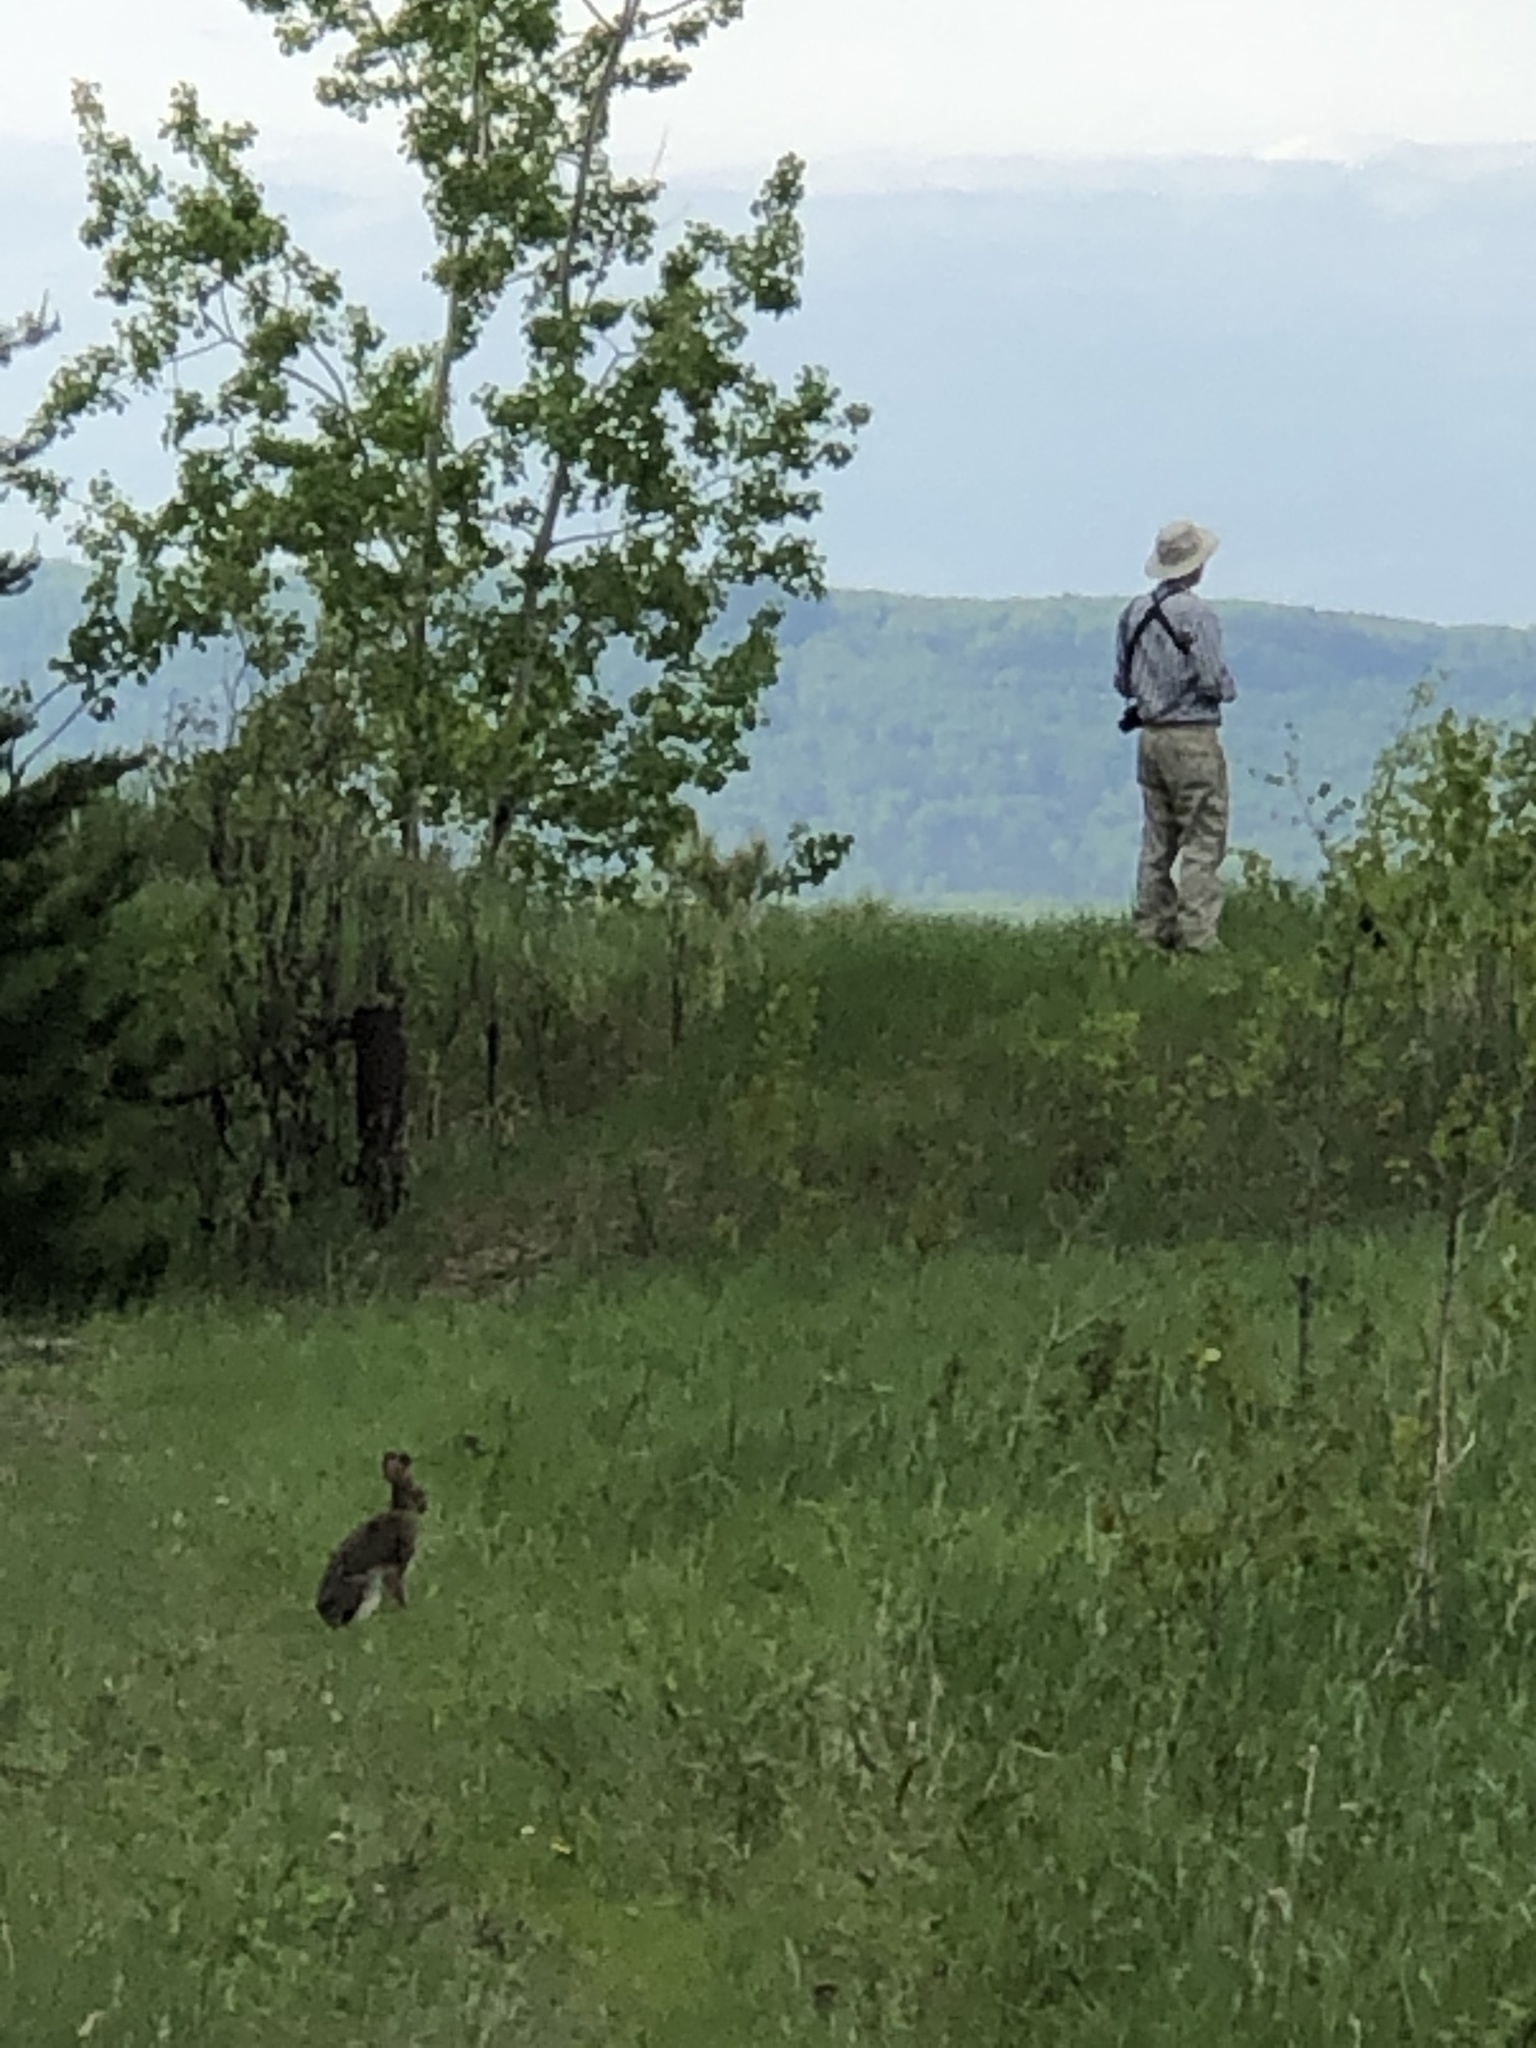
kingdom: Animalia
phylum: Chordata
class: Mammalia
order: Lagomorpha
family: Leporidae
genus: Lepus
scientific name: Lepus americanus
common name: Snowshoe hare
